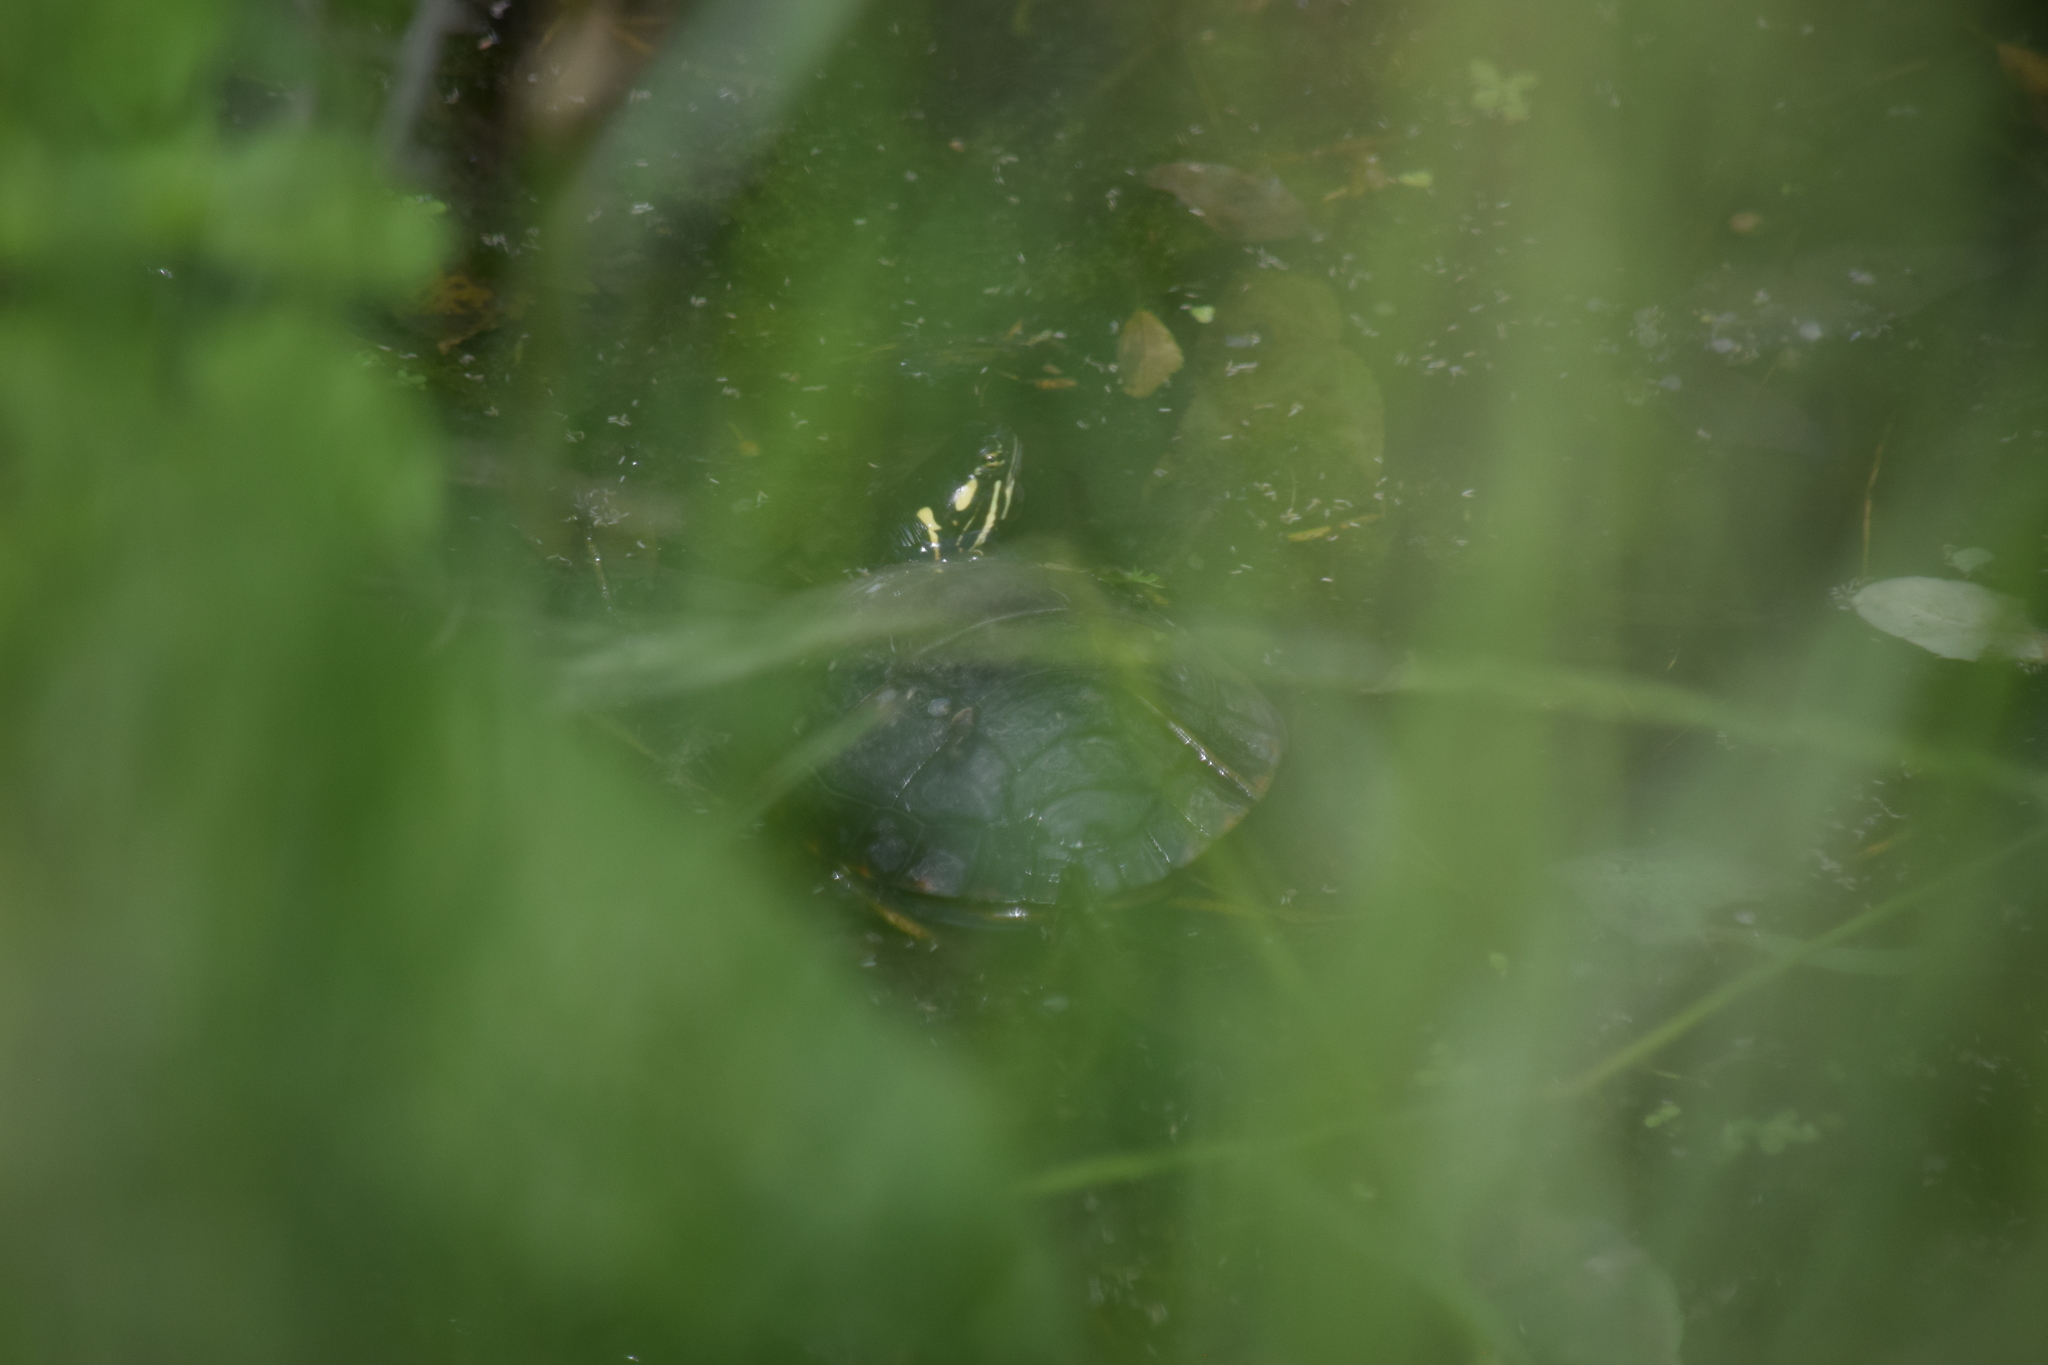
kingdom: Animalia
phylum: Chordata
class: Testudines
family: Emydidae
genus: Chrysemys
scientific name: Chrysemys picta
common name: Painted turtle
